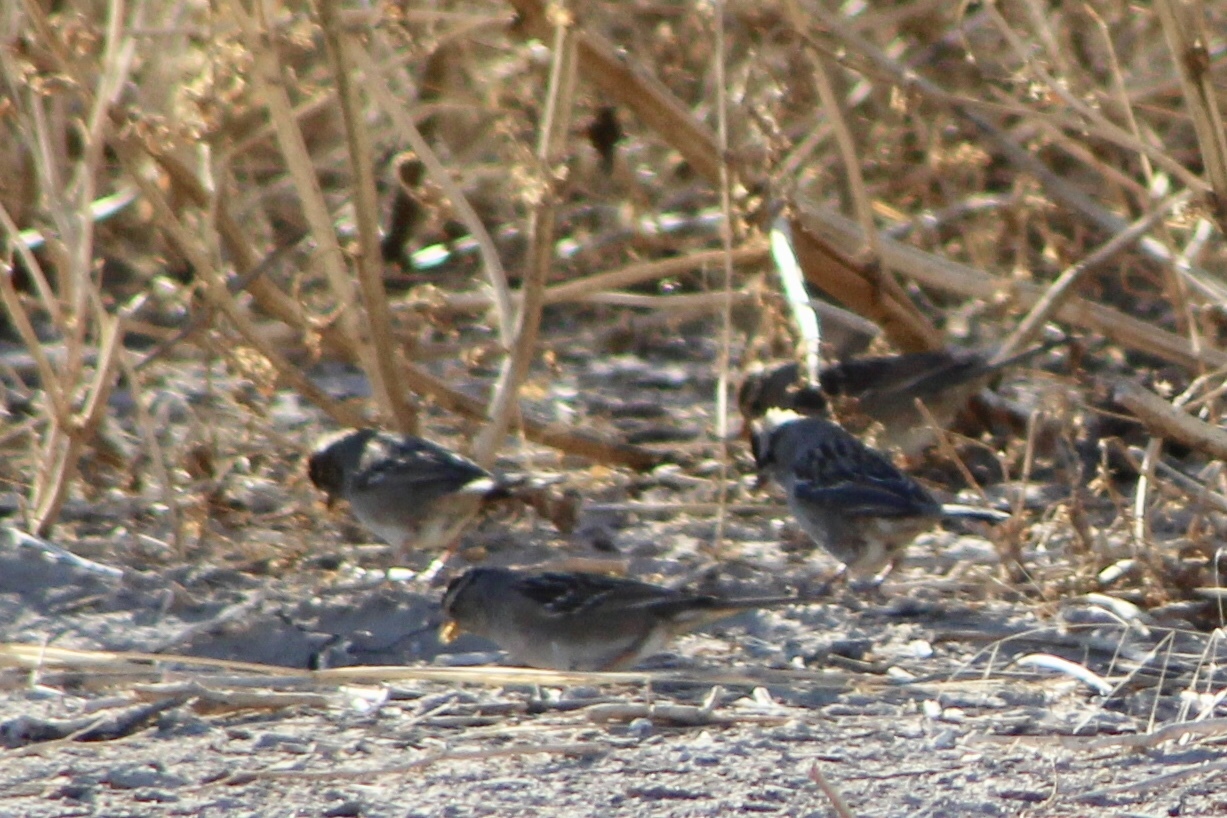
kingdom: Animalia
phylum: Chordata
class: Aves
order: Passeriformes
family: Passerellidae
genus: Zonotrichia
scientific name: Zonotrichia leucophrys
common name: White-crowned sparrow
